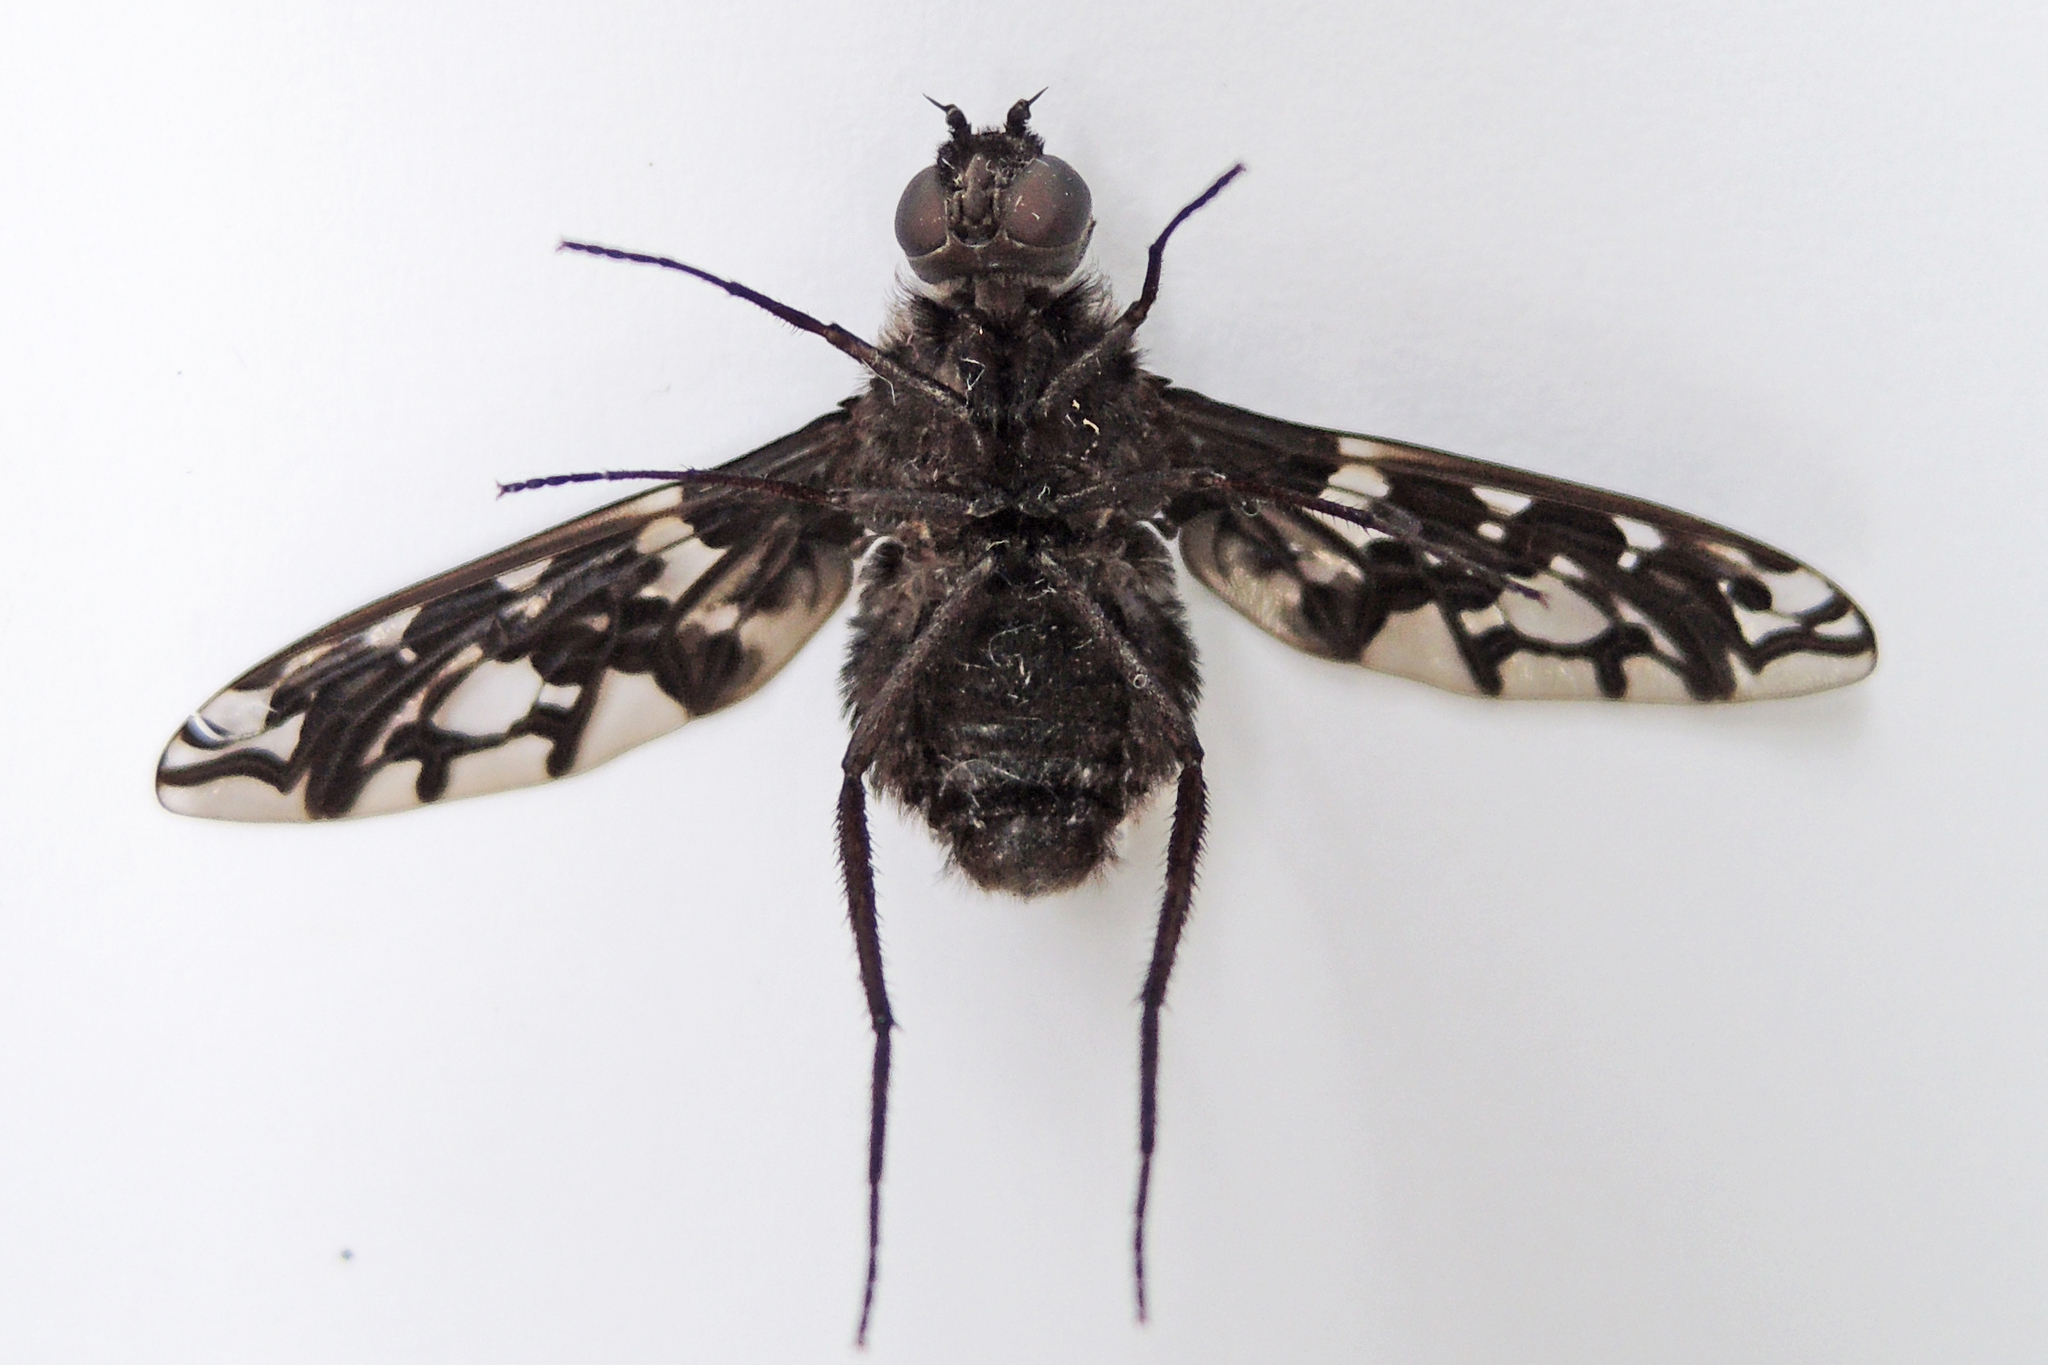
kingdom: Animalia
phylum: Arthropoda
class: Insecta
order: Diptera
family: Bombyliidae
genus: Xenox
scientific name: Xenox tigrinus
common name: Tiger bee fly
